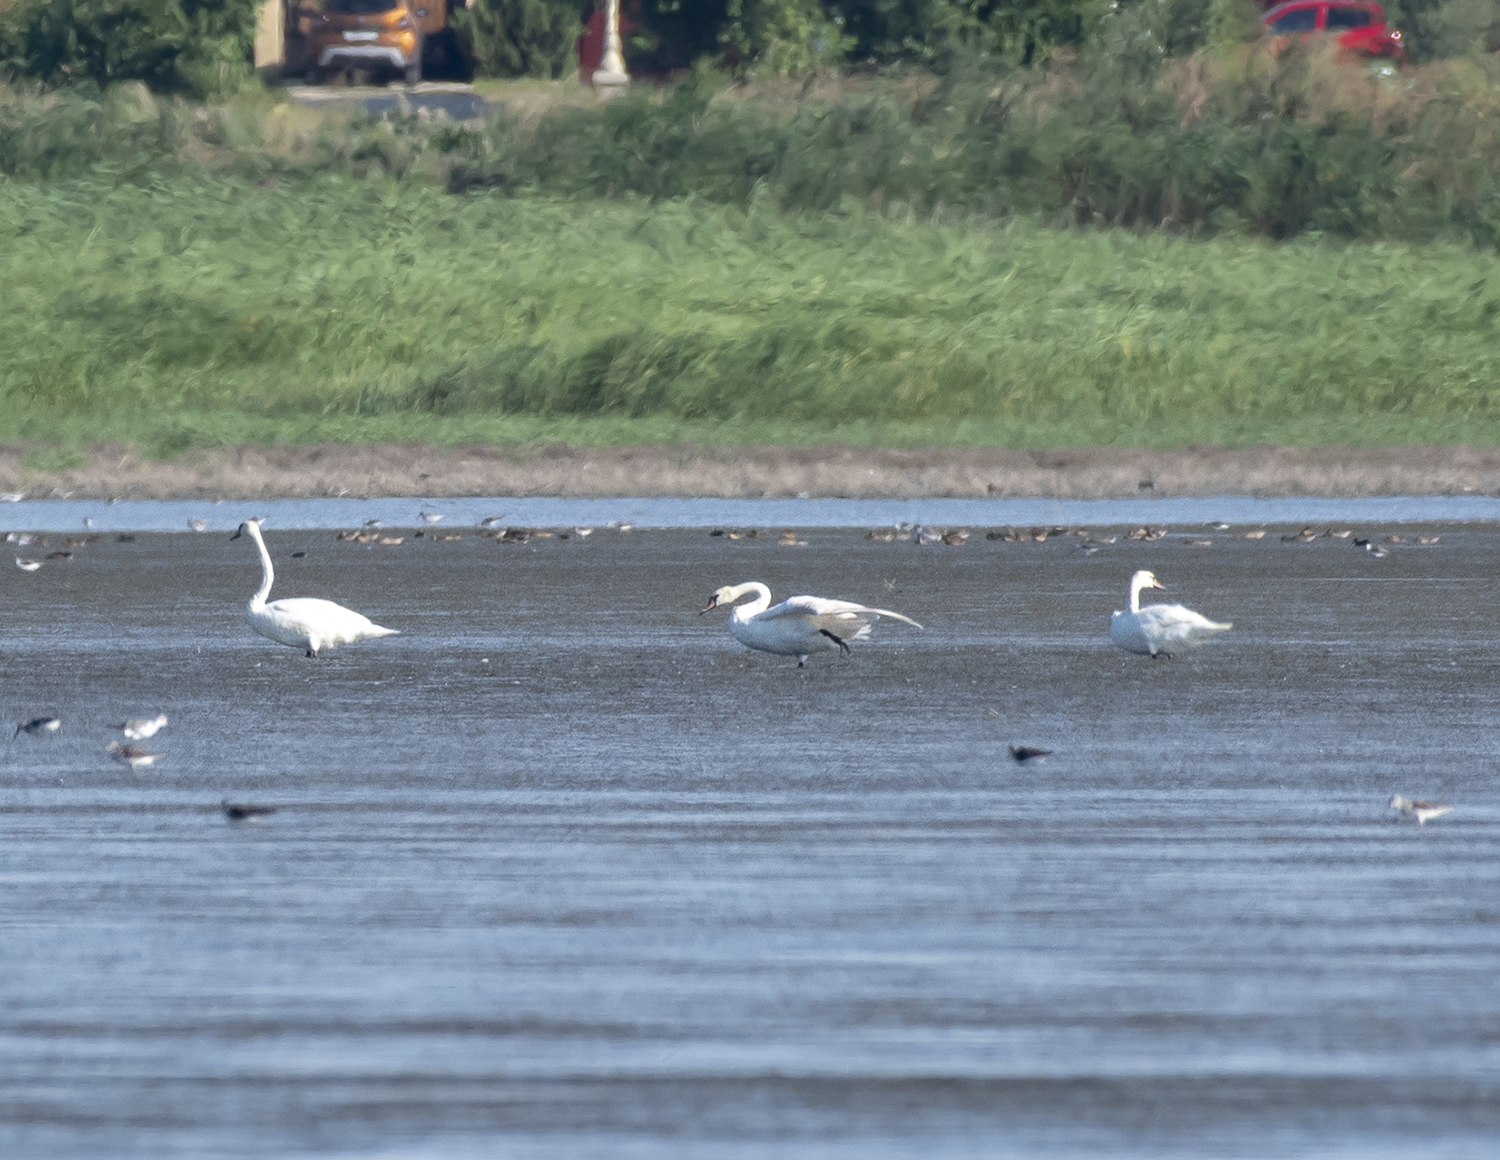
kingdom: Animalia
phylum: Chordata
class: Aves
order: Anseriformes
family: Anatidae
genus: Cygnus
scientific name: Cygnus olor
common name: Mute swan
